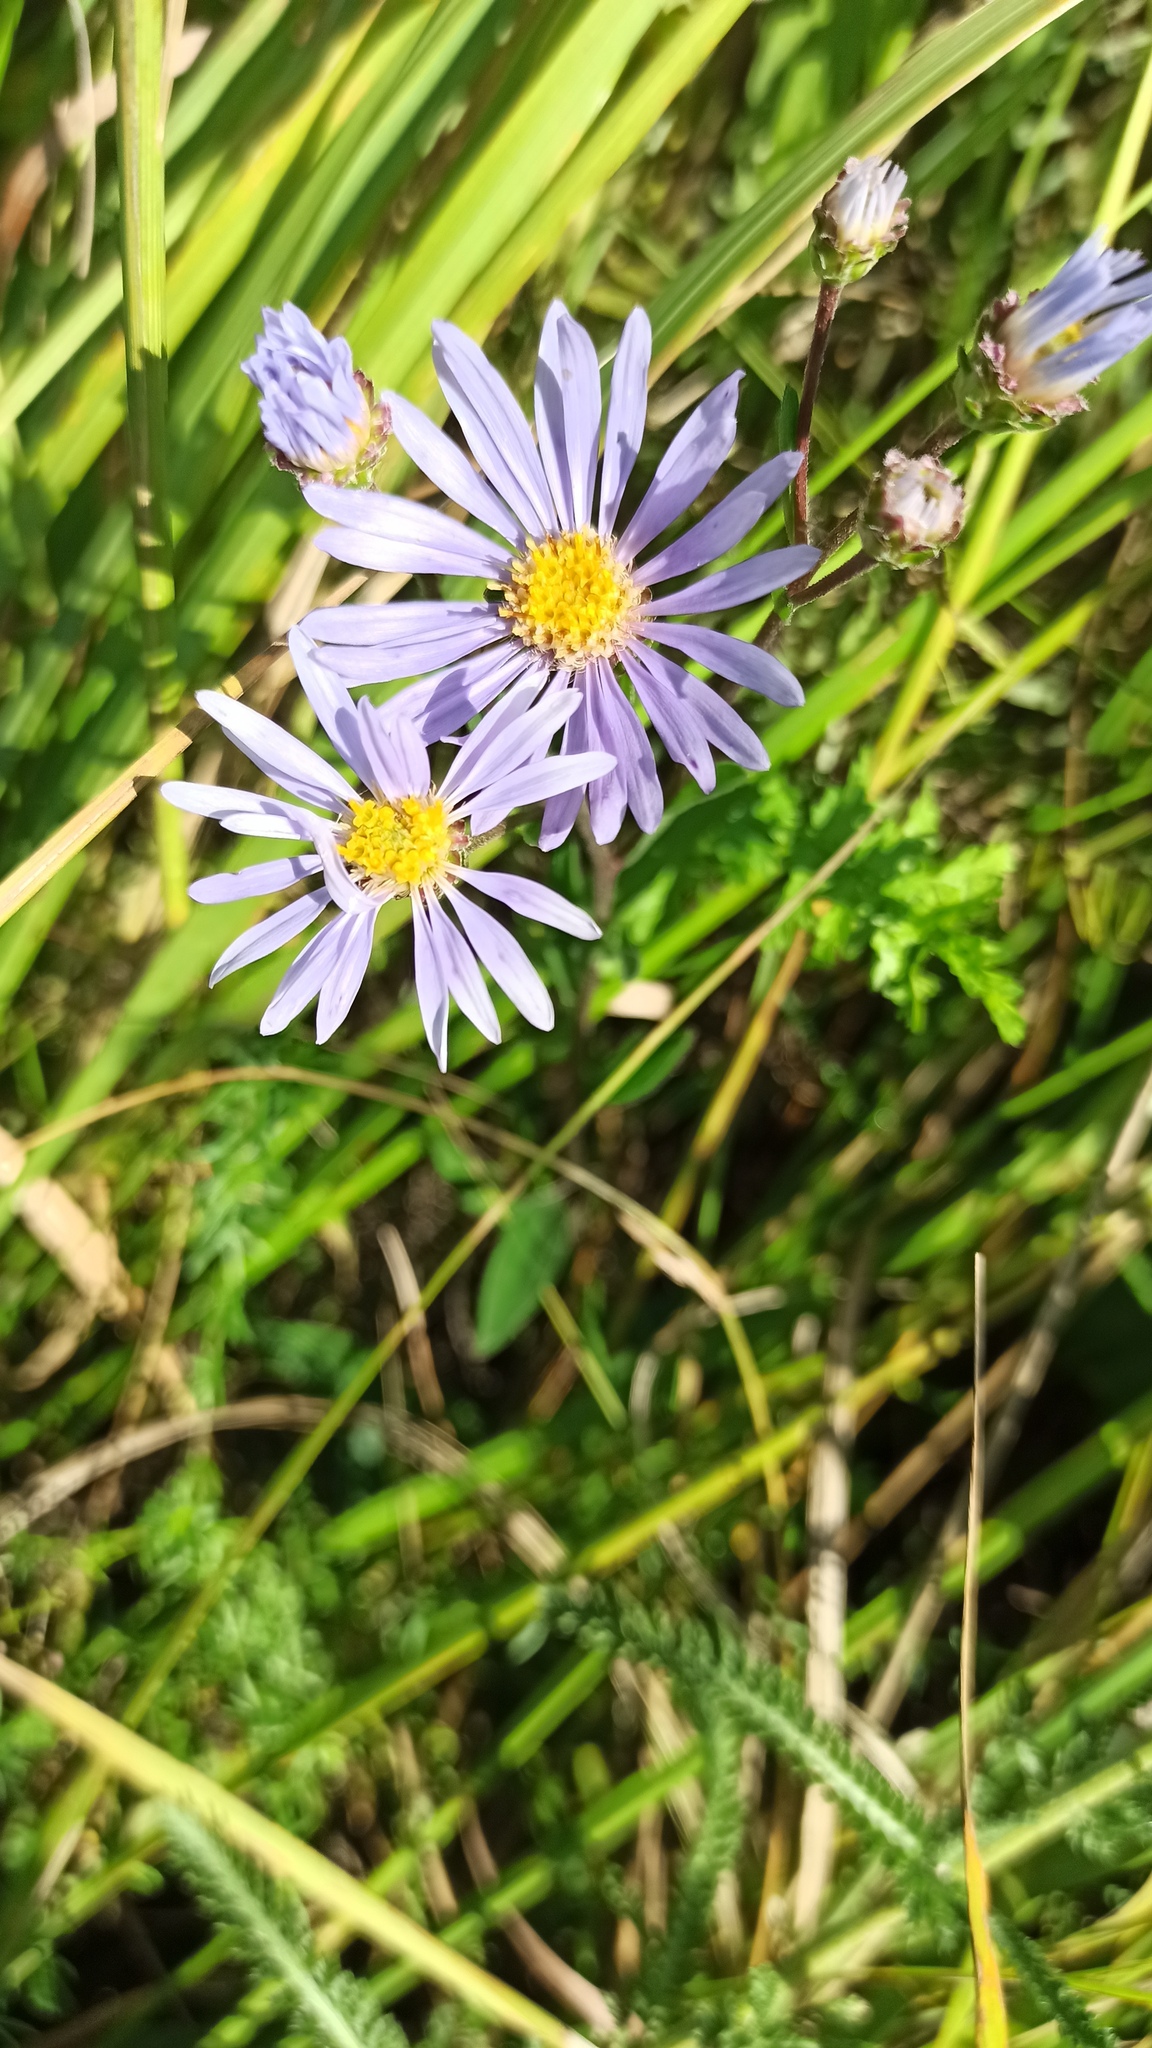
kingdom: Plantae
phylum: Tracheophyta
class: Magnoliopsida
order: Asterales
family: Asteraceae
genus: Aster
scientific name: Aster amellus
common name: European michaelmas daisy
